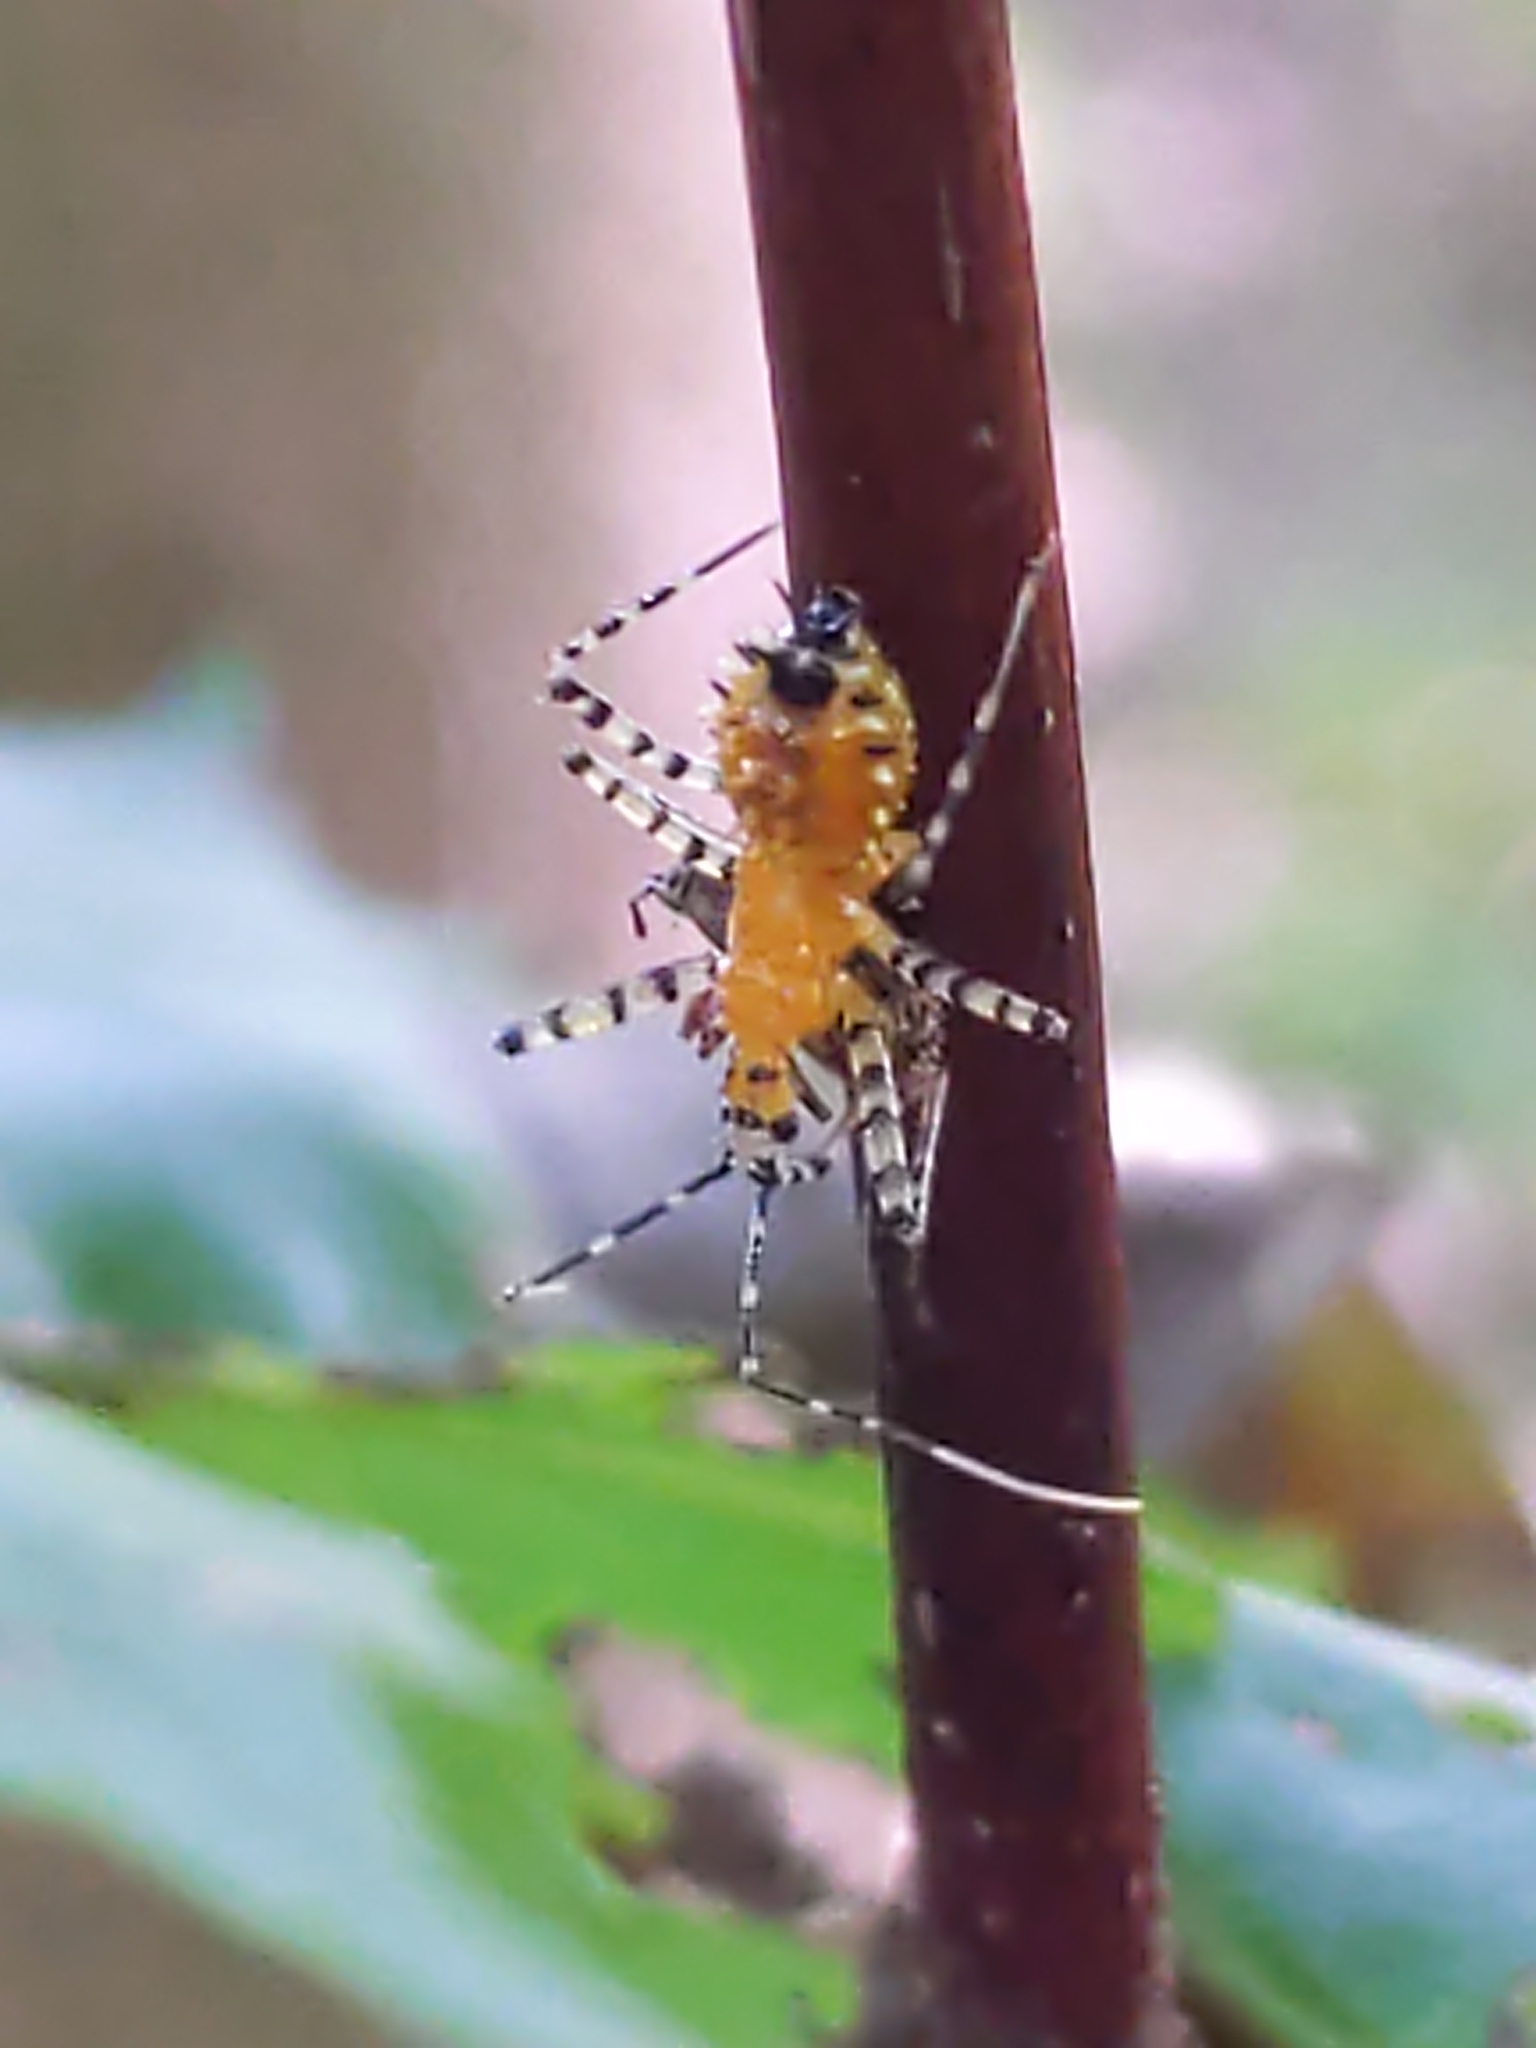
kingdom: Animalia
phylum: Arthropoda
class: Insecta
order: Hemiptera
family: Reduviidae
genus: Pselliopus
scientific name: Pselliopus barberi
